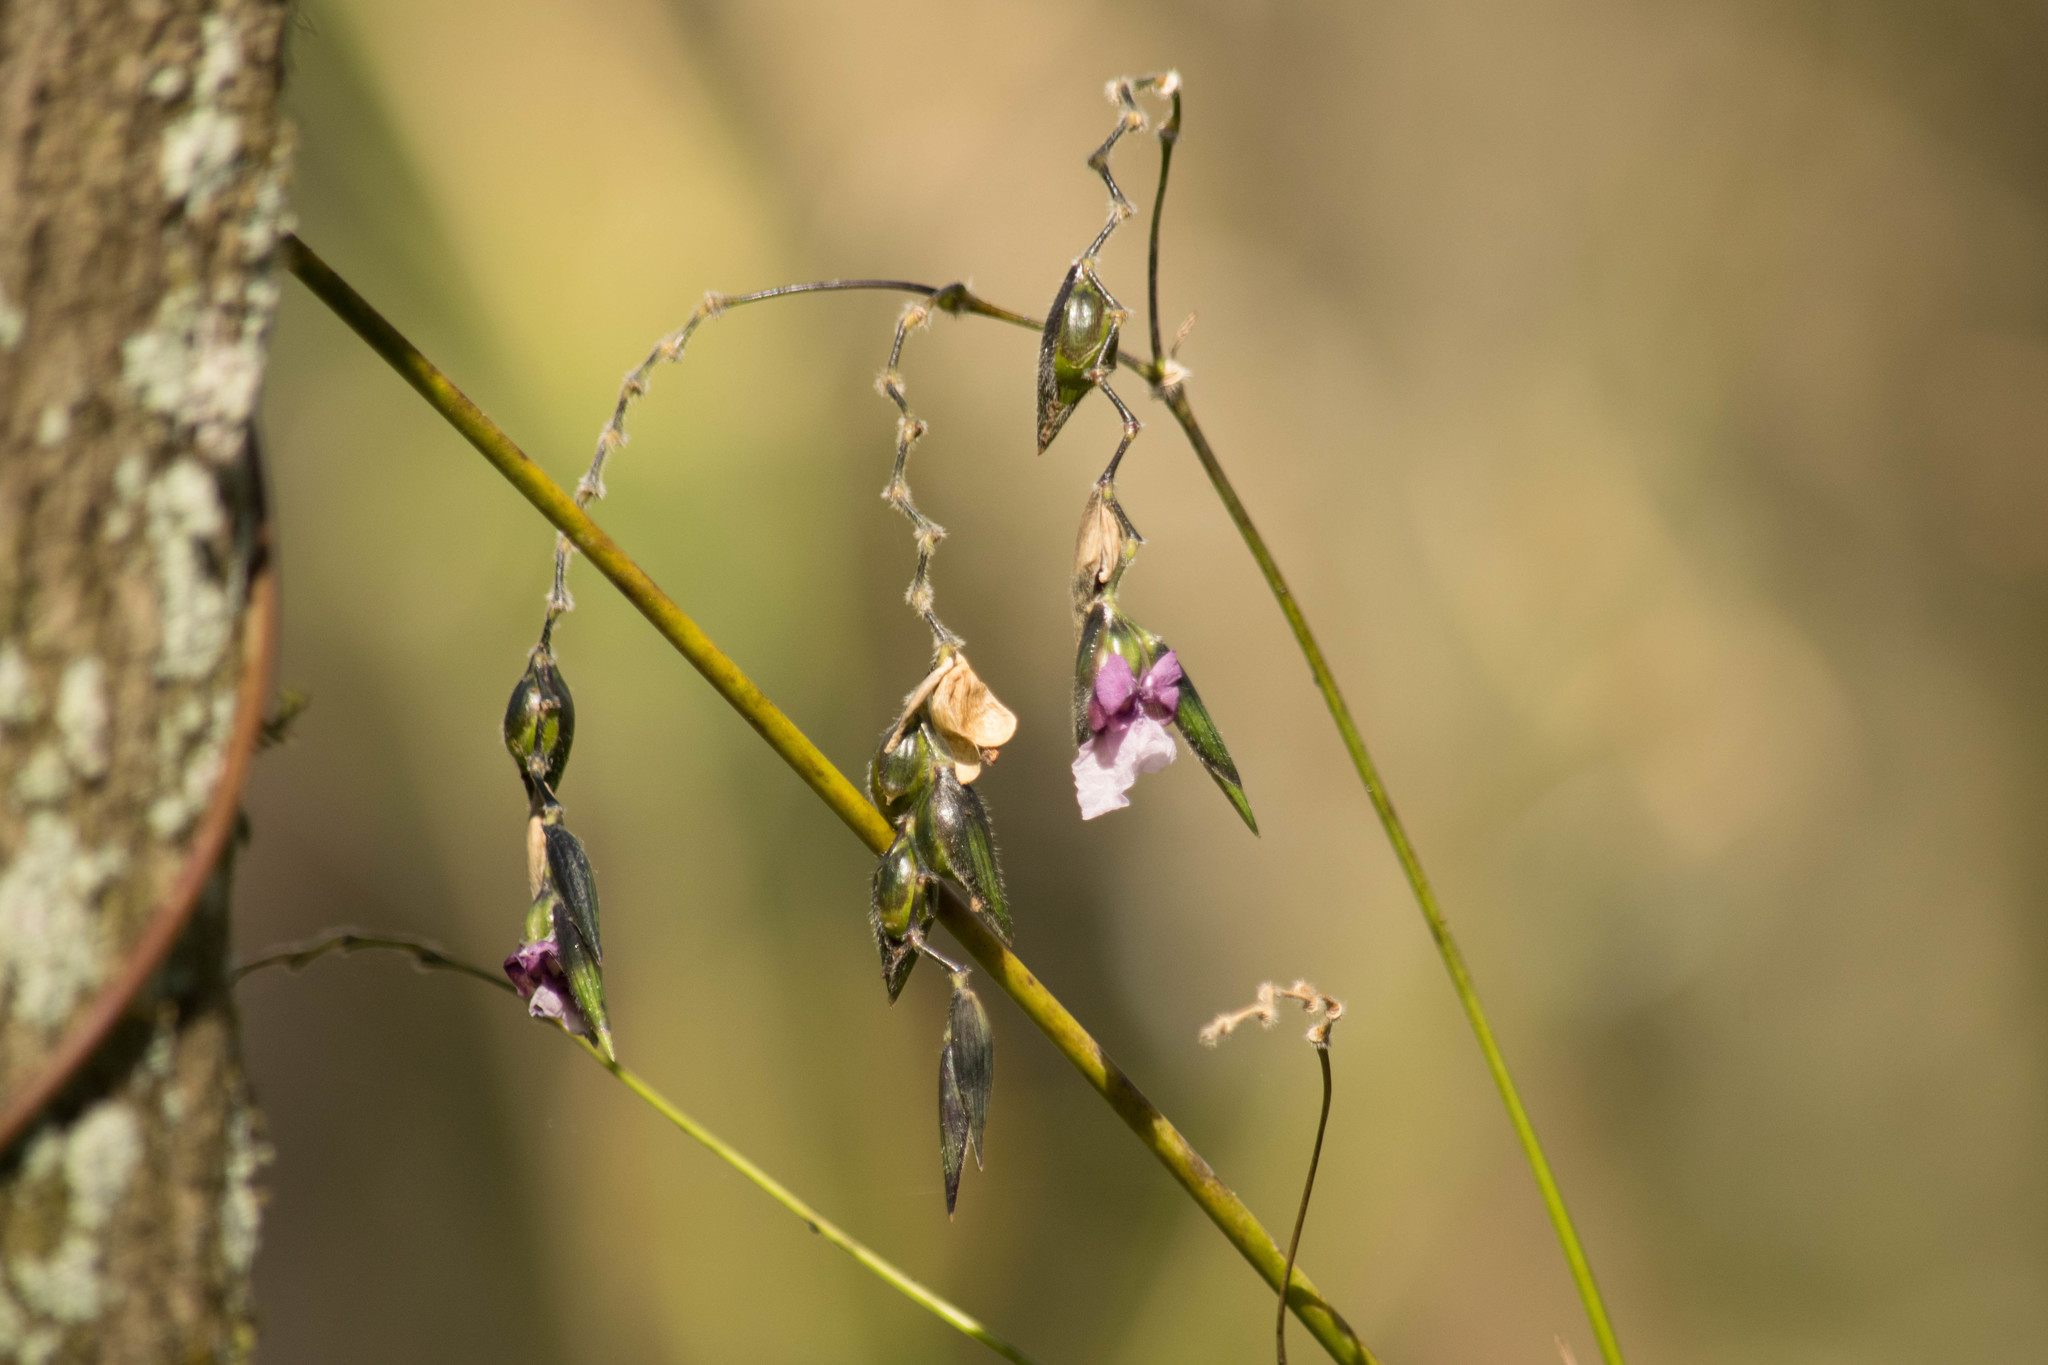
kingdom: Plantae
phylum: Tracheophyta
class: Liliopsida
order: Zingiberales
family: Marantaceae
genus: Thalia
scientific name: Thalia geniculata
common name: Arrowroot
